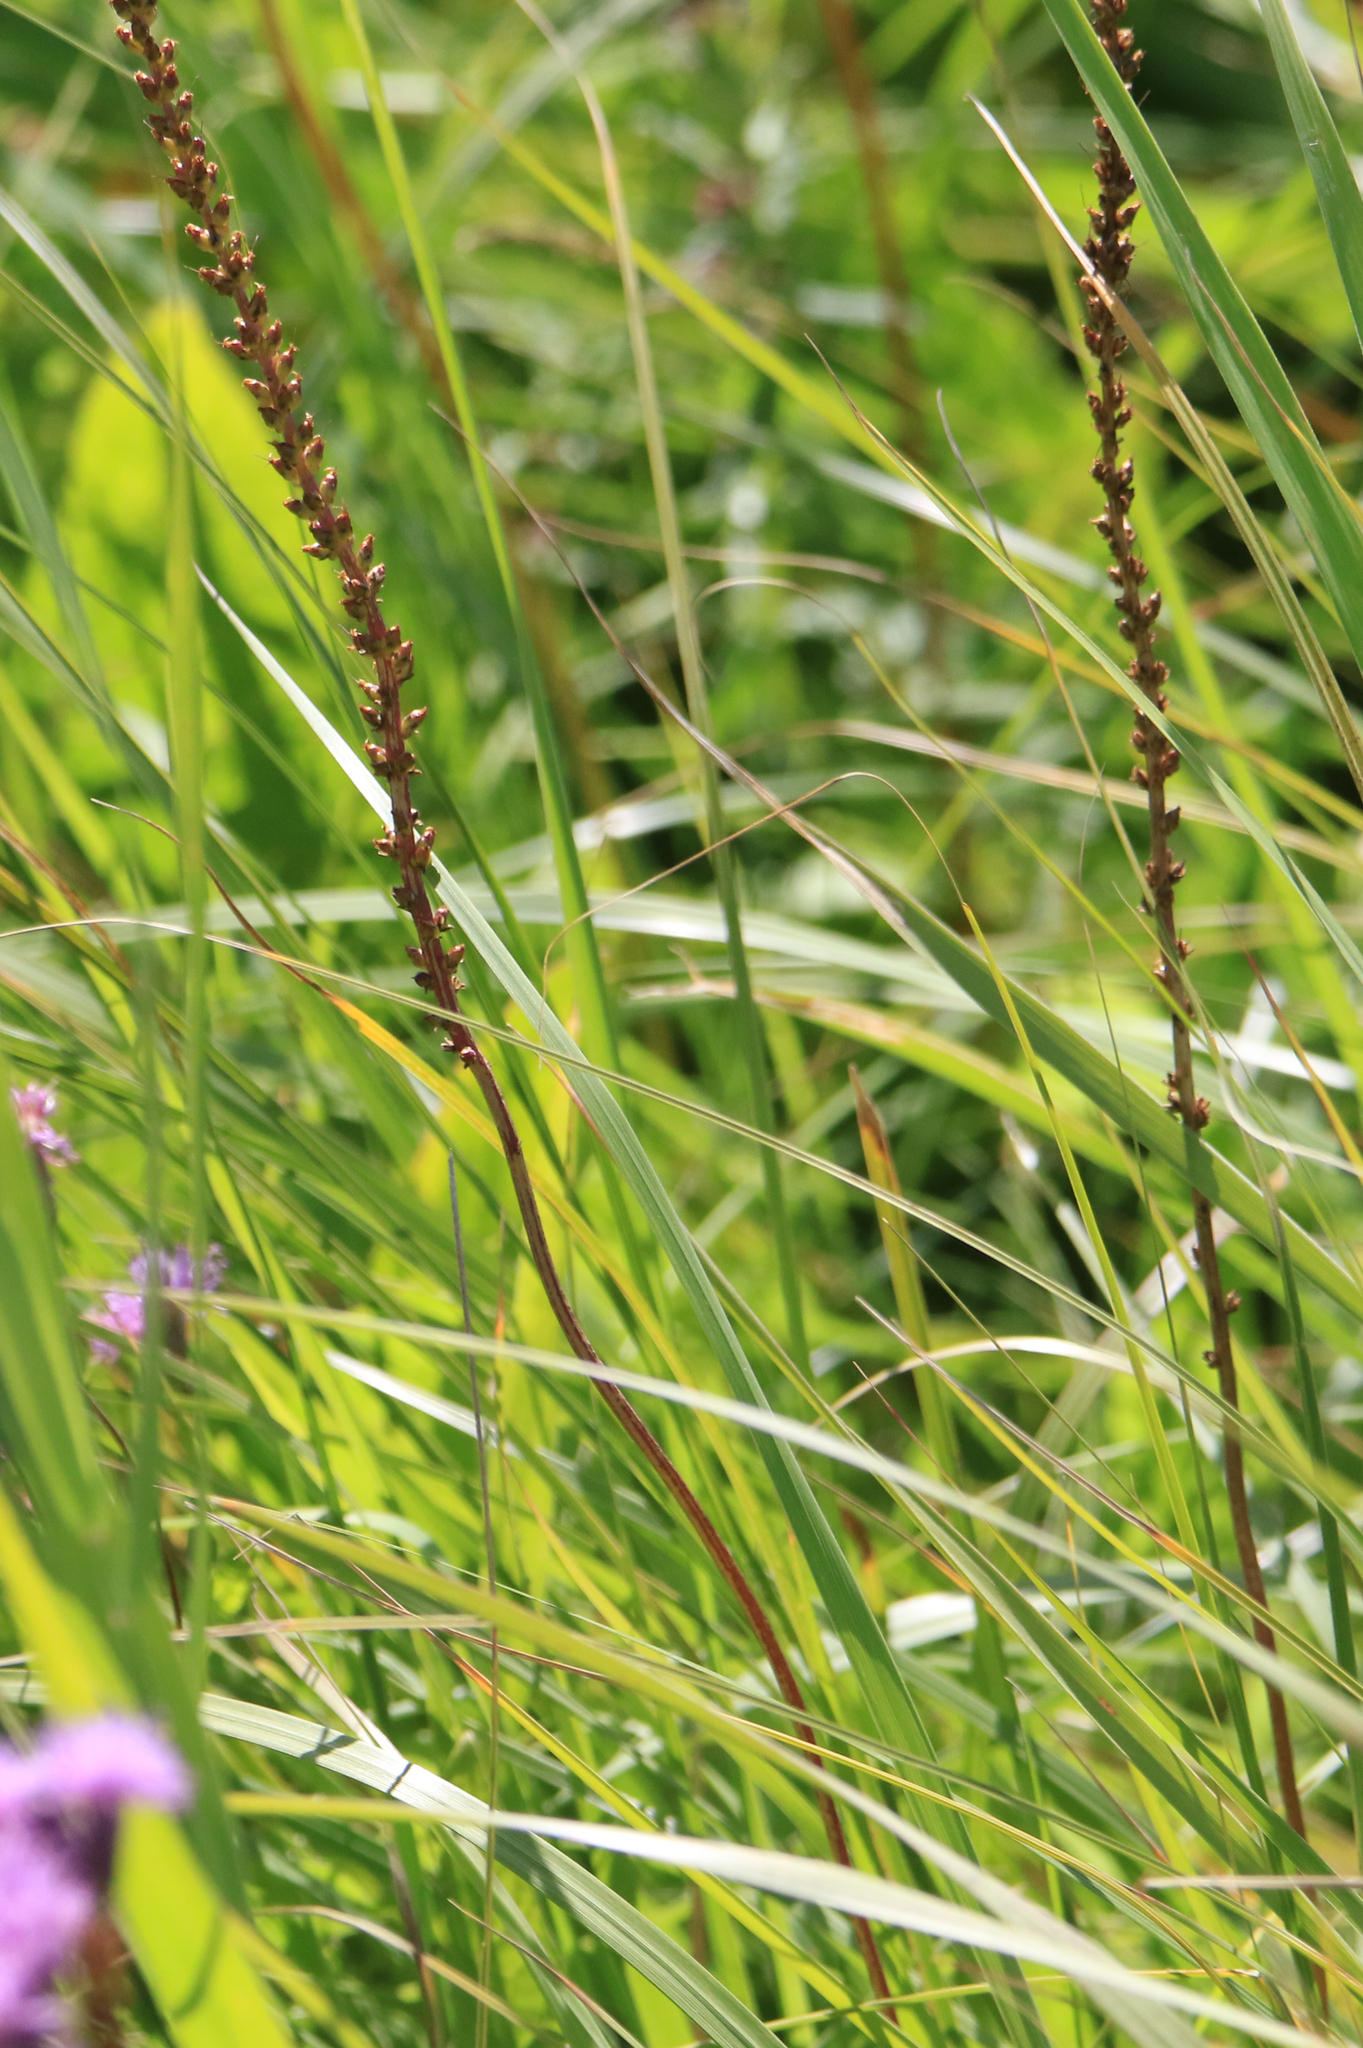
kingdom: Plantae
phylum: Tracheophyta
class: Magnoliopsida
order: Lamiales
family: Plantaginaceae
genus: Plantago
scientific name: Plantago cornuti
